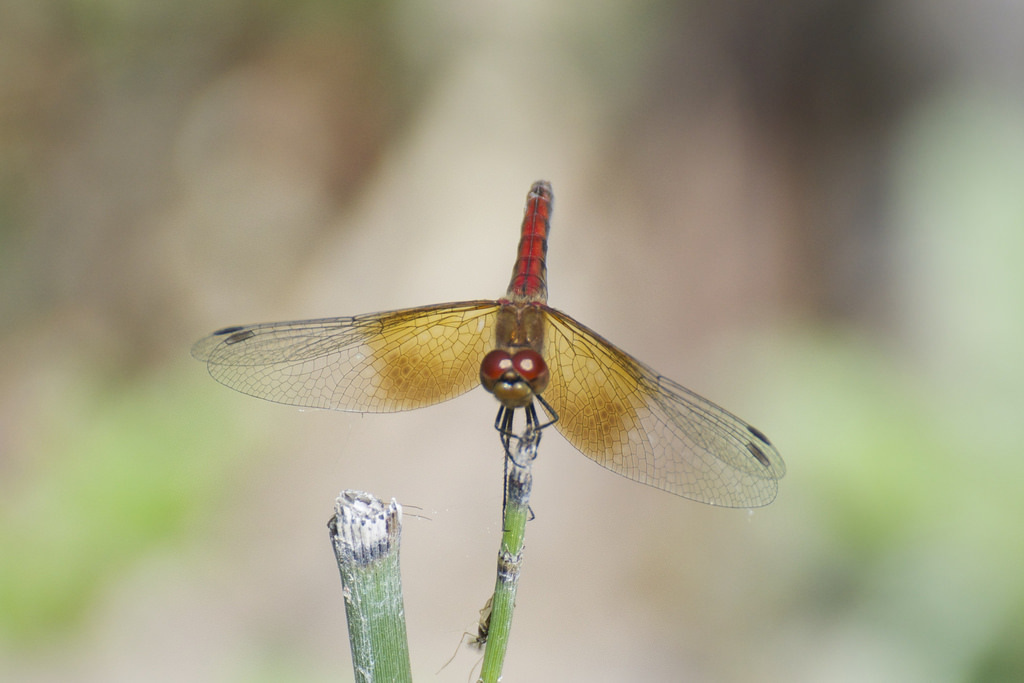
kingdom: Animalia
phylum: Arthropoda
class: Insecta
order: Odonata
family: Libellulidae
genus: Sympetrum
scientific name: Sympetrum semicinctum
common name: Band-winged meadowhawk
